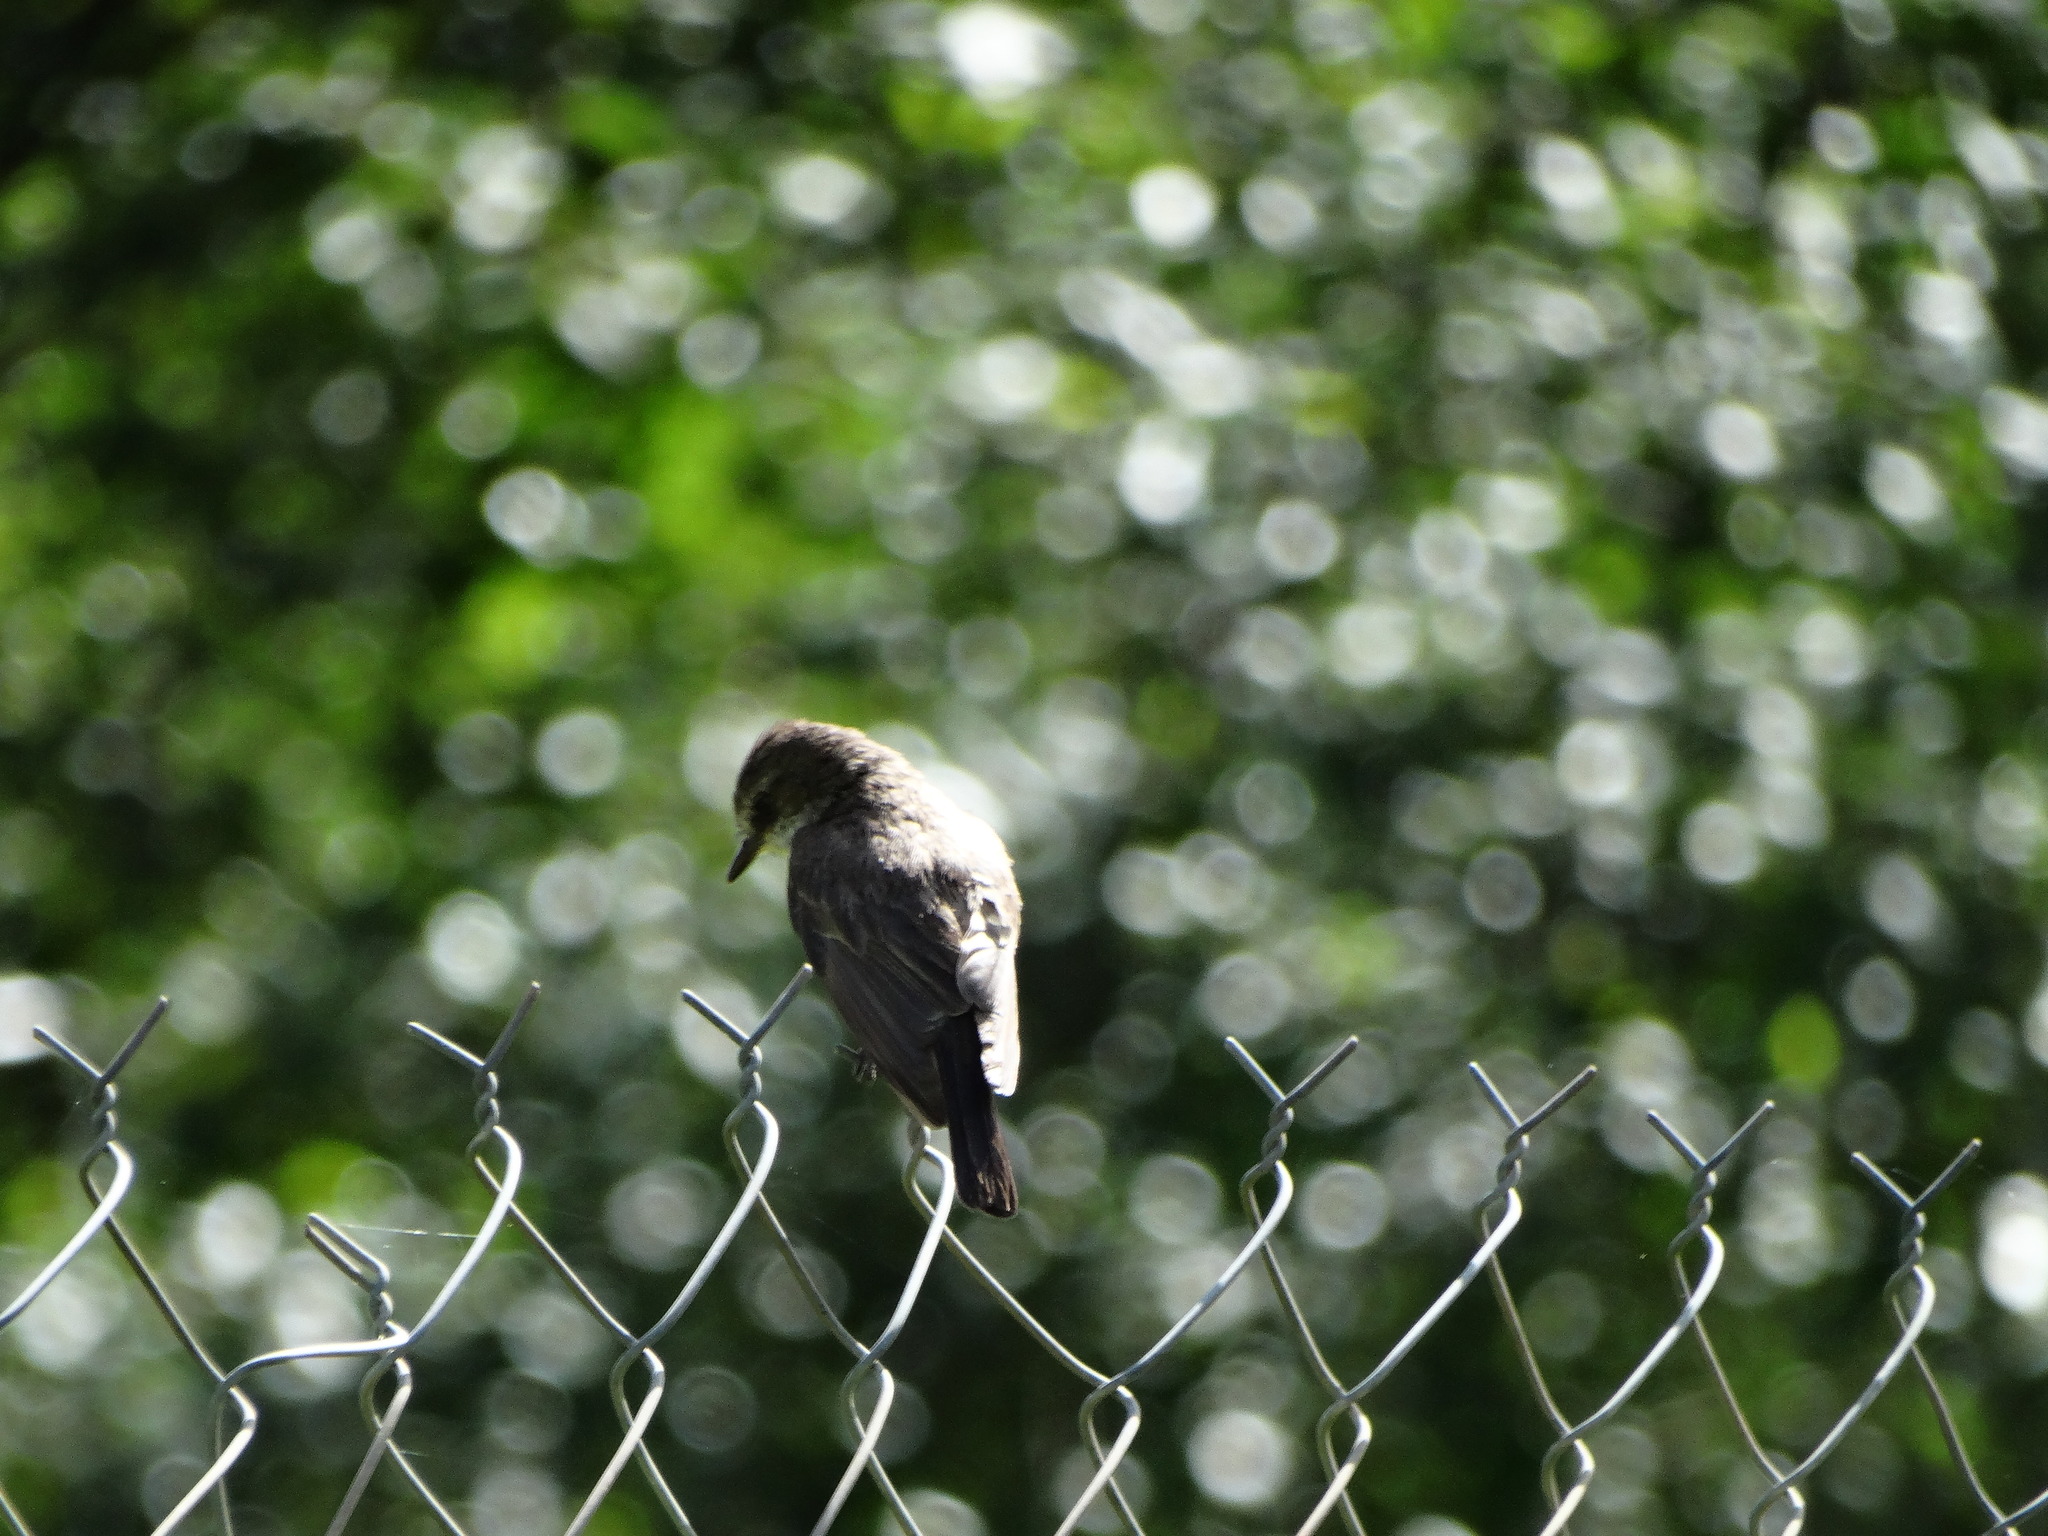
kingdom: Animalia
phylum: Chordata
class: Aves
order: Passeriformes
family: Tyrannidae
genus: Pyrocephalus
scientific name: Pyrocephalus rubinus
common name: Vermilion flycatcher
